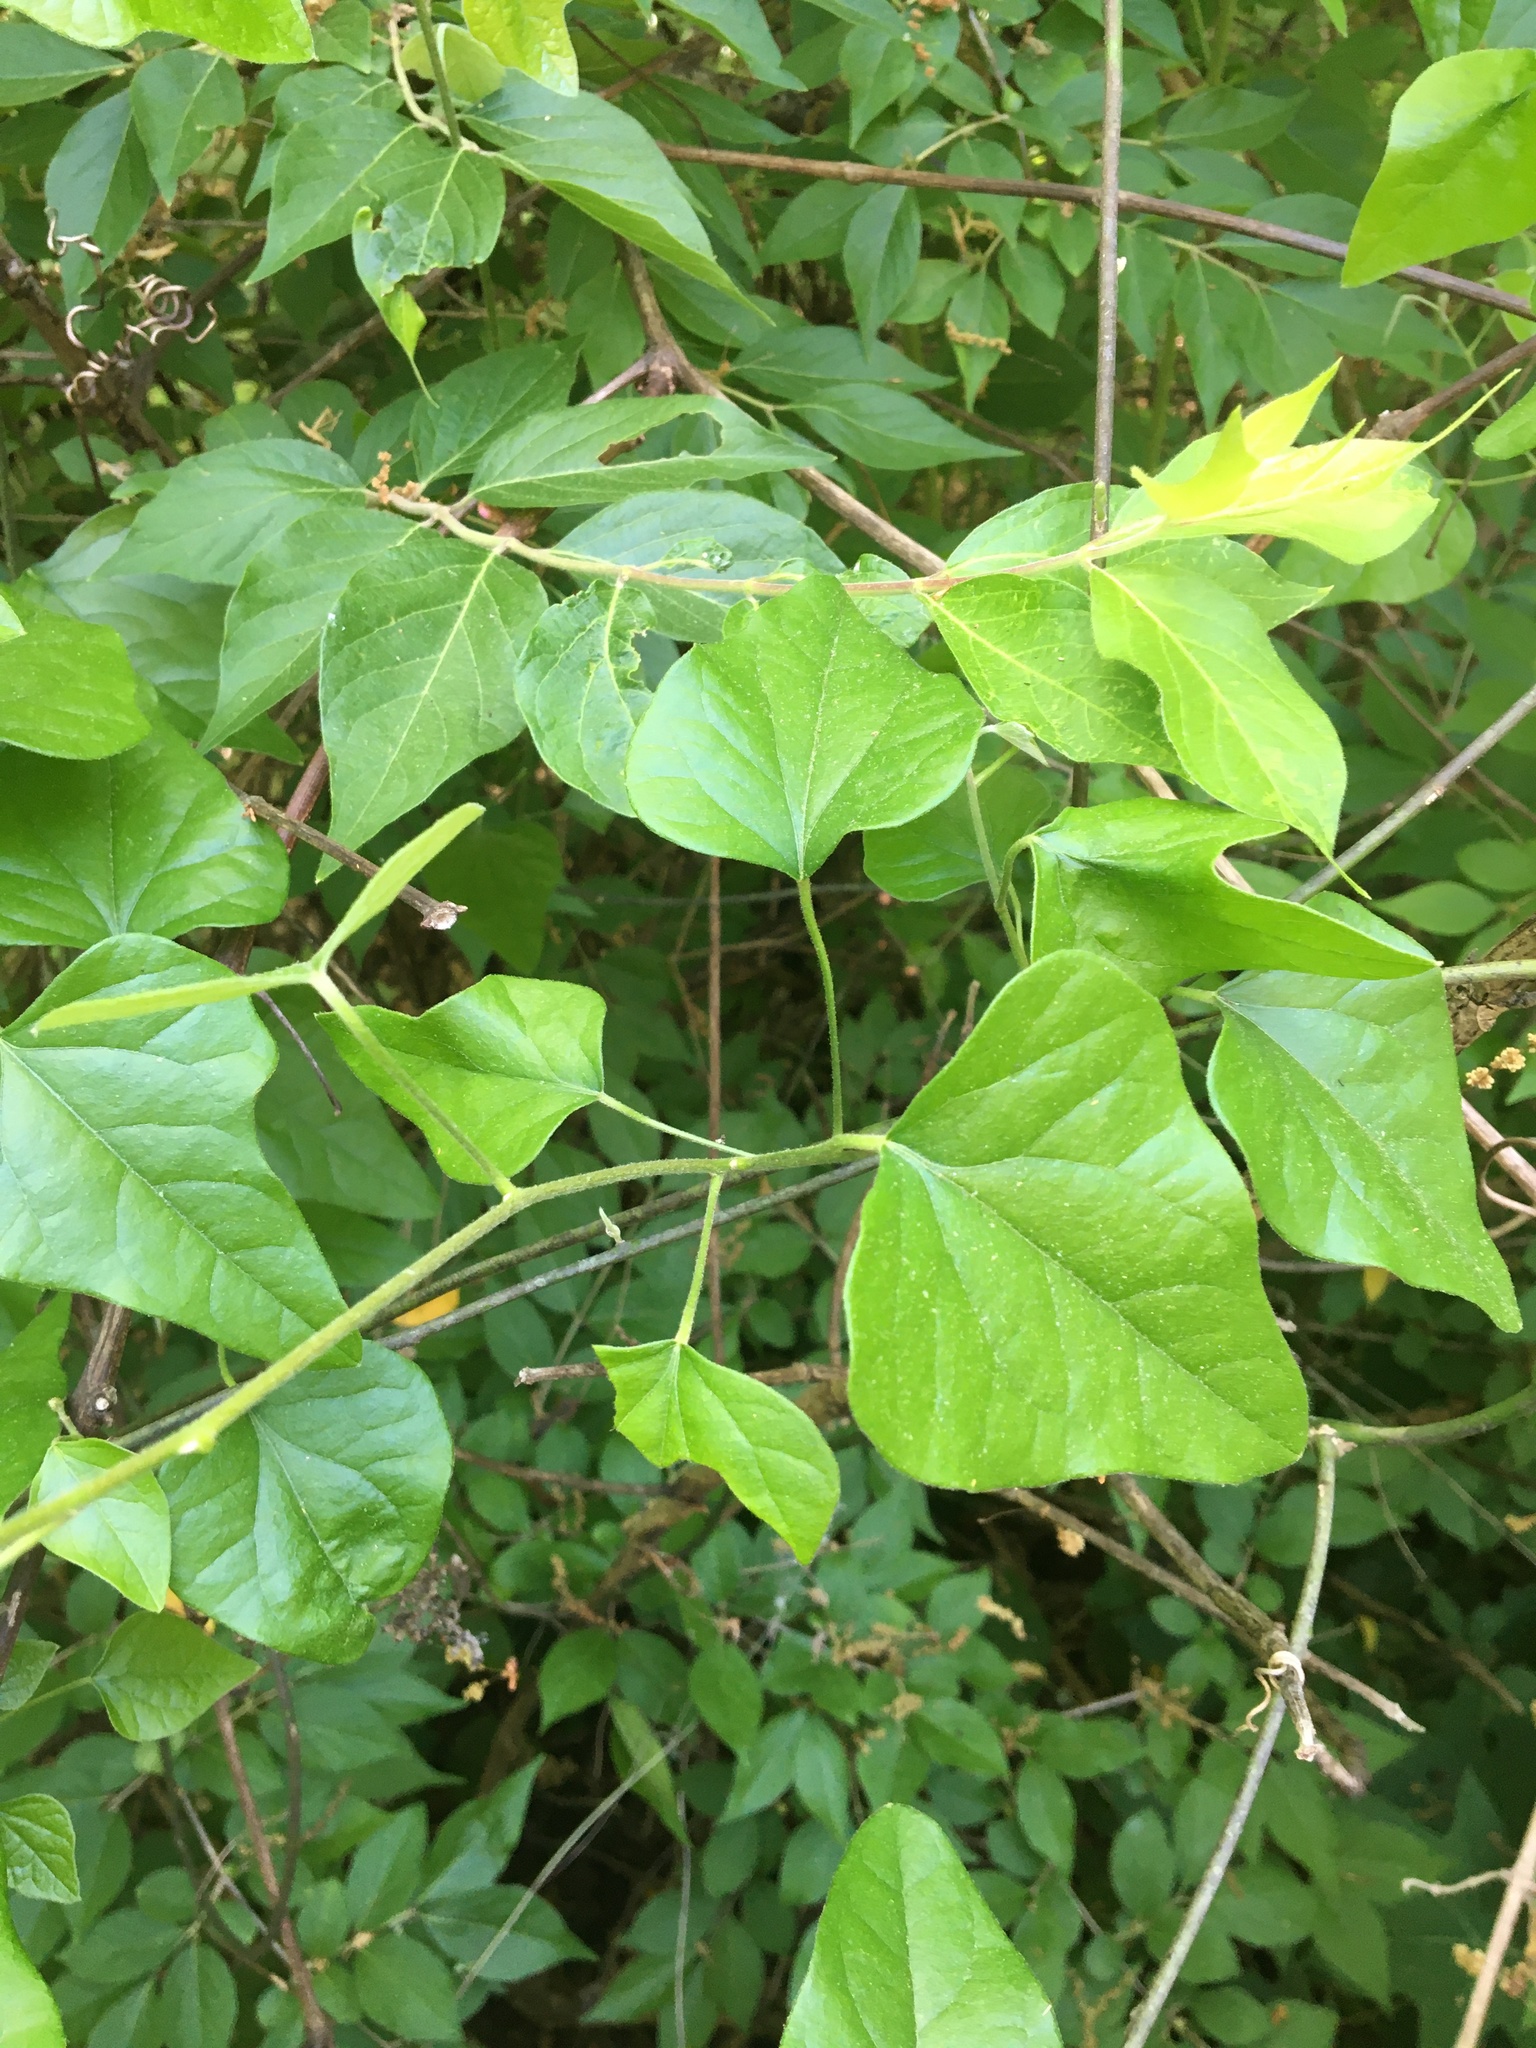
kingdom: Plantae
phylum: Tracheophyta
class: Magnoliopsida
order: Ranunculales
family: Menispermaceae
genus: Cocculus
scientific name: Cocculus carolinus
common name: Carolina moonseed
